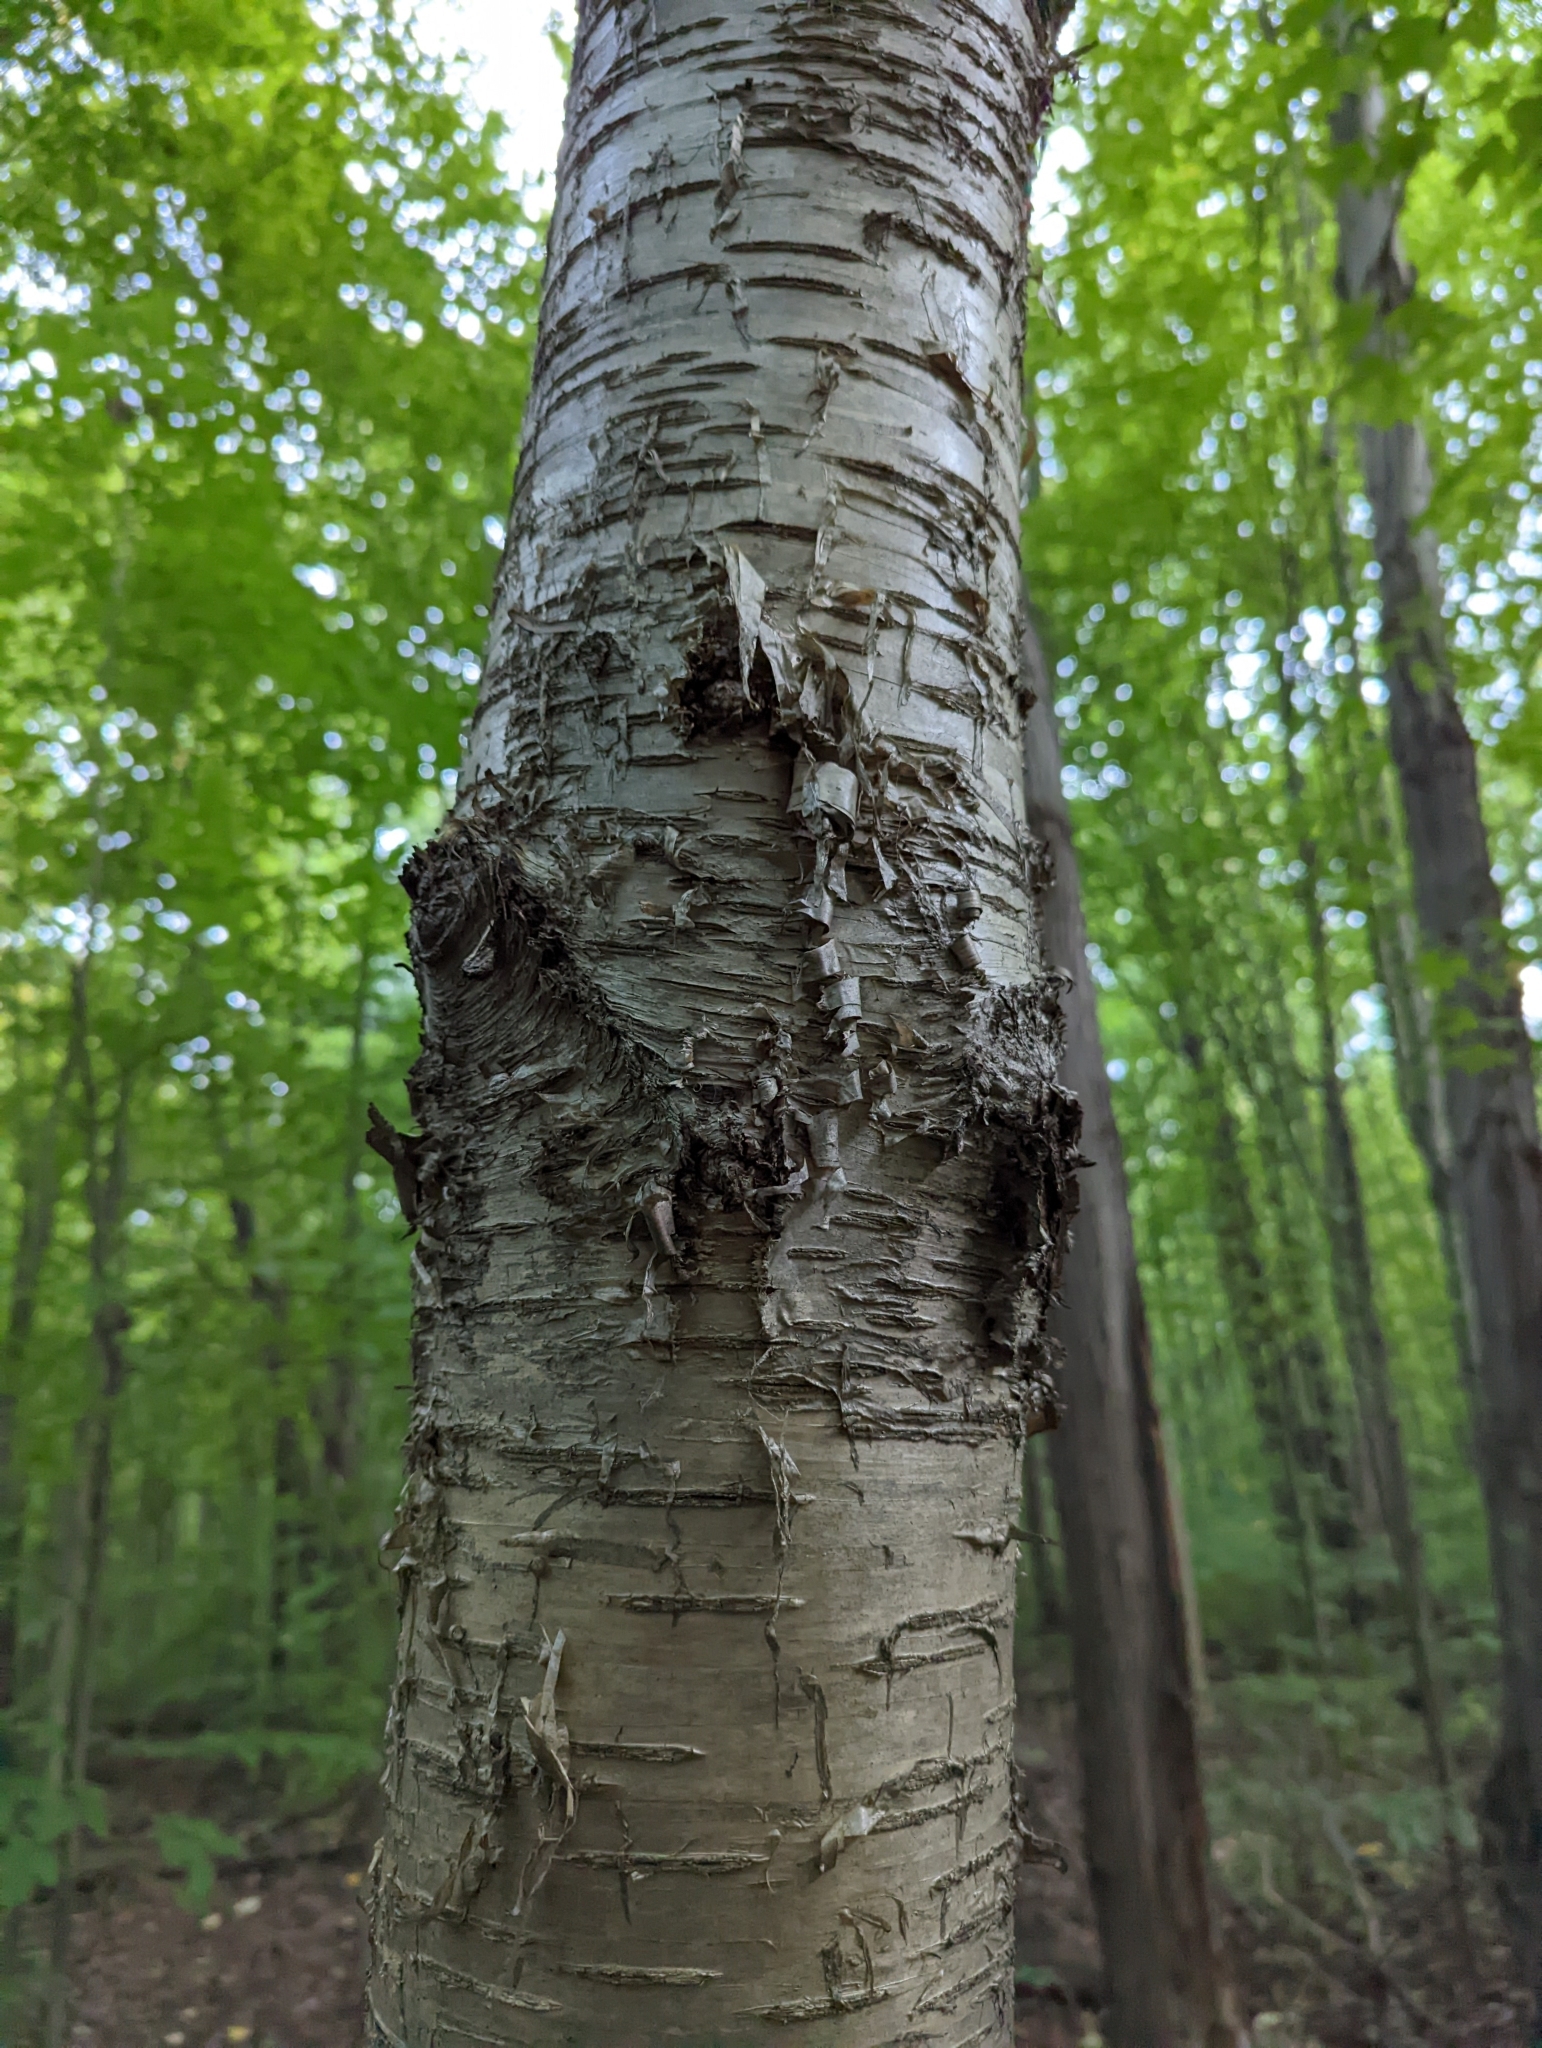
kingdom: Plantae
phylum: Tracheophyta
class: Magnoliopsida
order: Fagales
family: Betulaceae
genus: Betula
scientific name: Betula alleghaniensis
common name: Yellow birch
